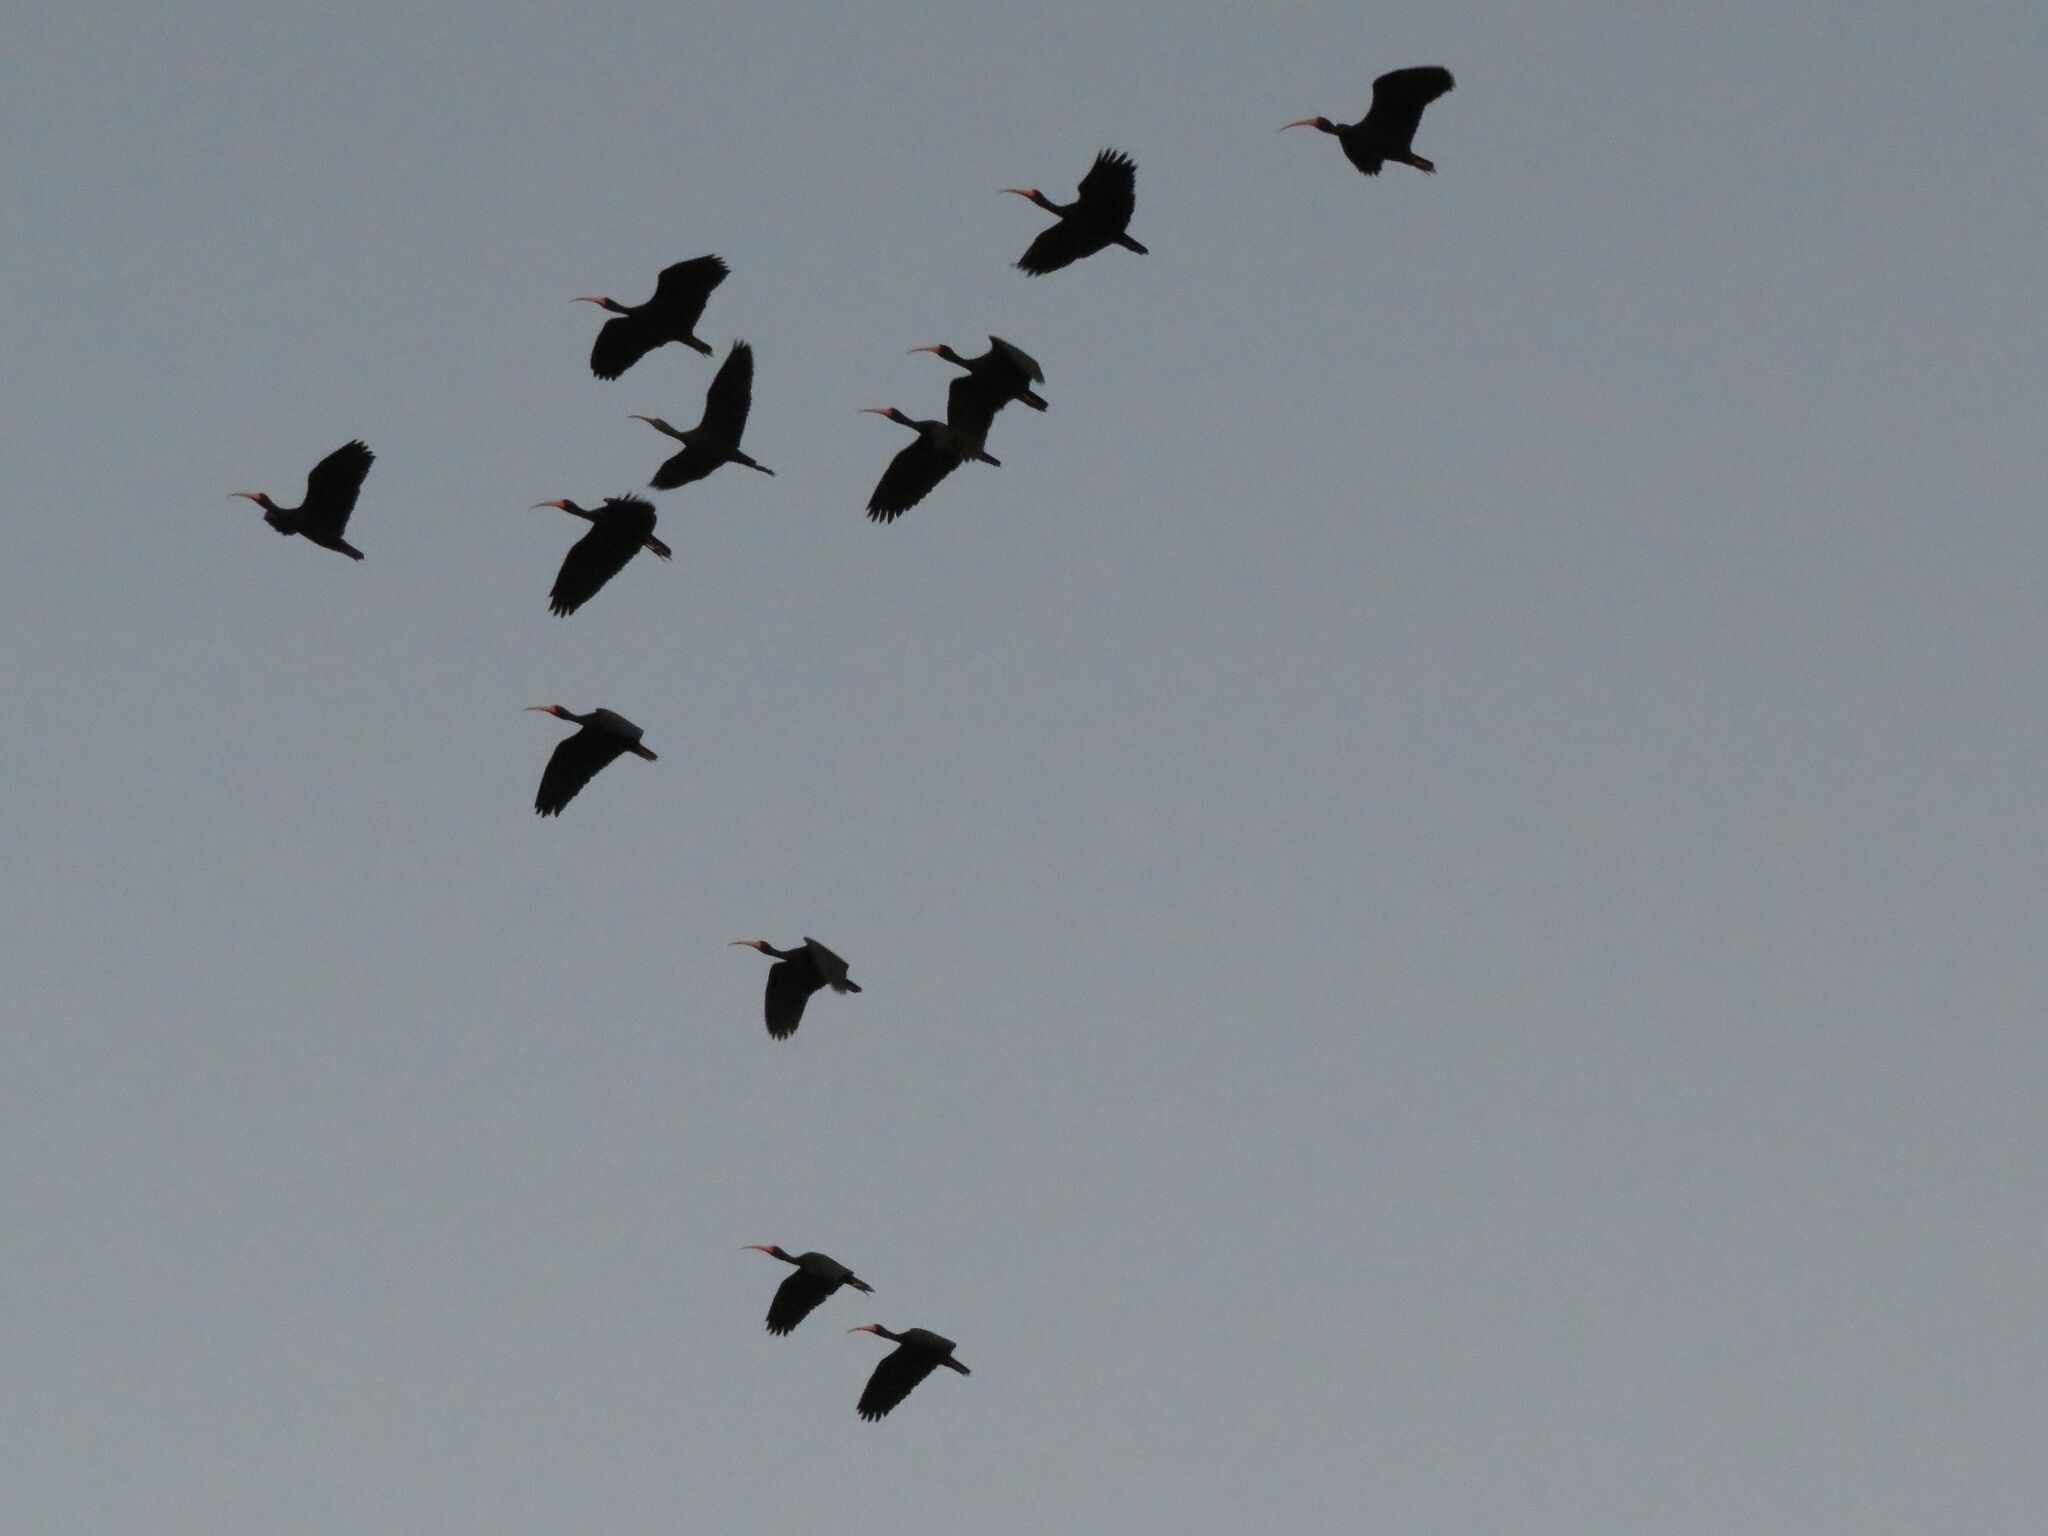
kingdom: Animalia
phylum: Chordata
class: Aves
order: Pelecaniformes
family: Threskiornithidae
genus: Phimosus
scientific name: Phimosus infuscatus
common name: Bare-faced ibis
